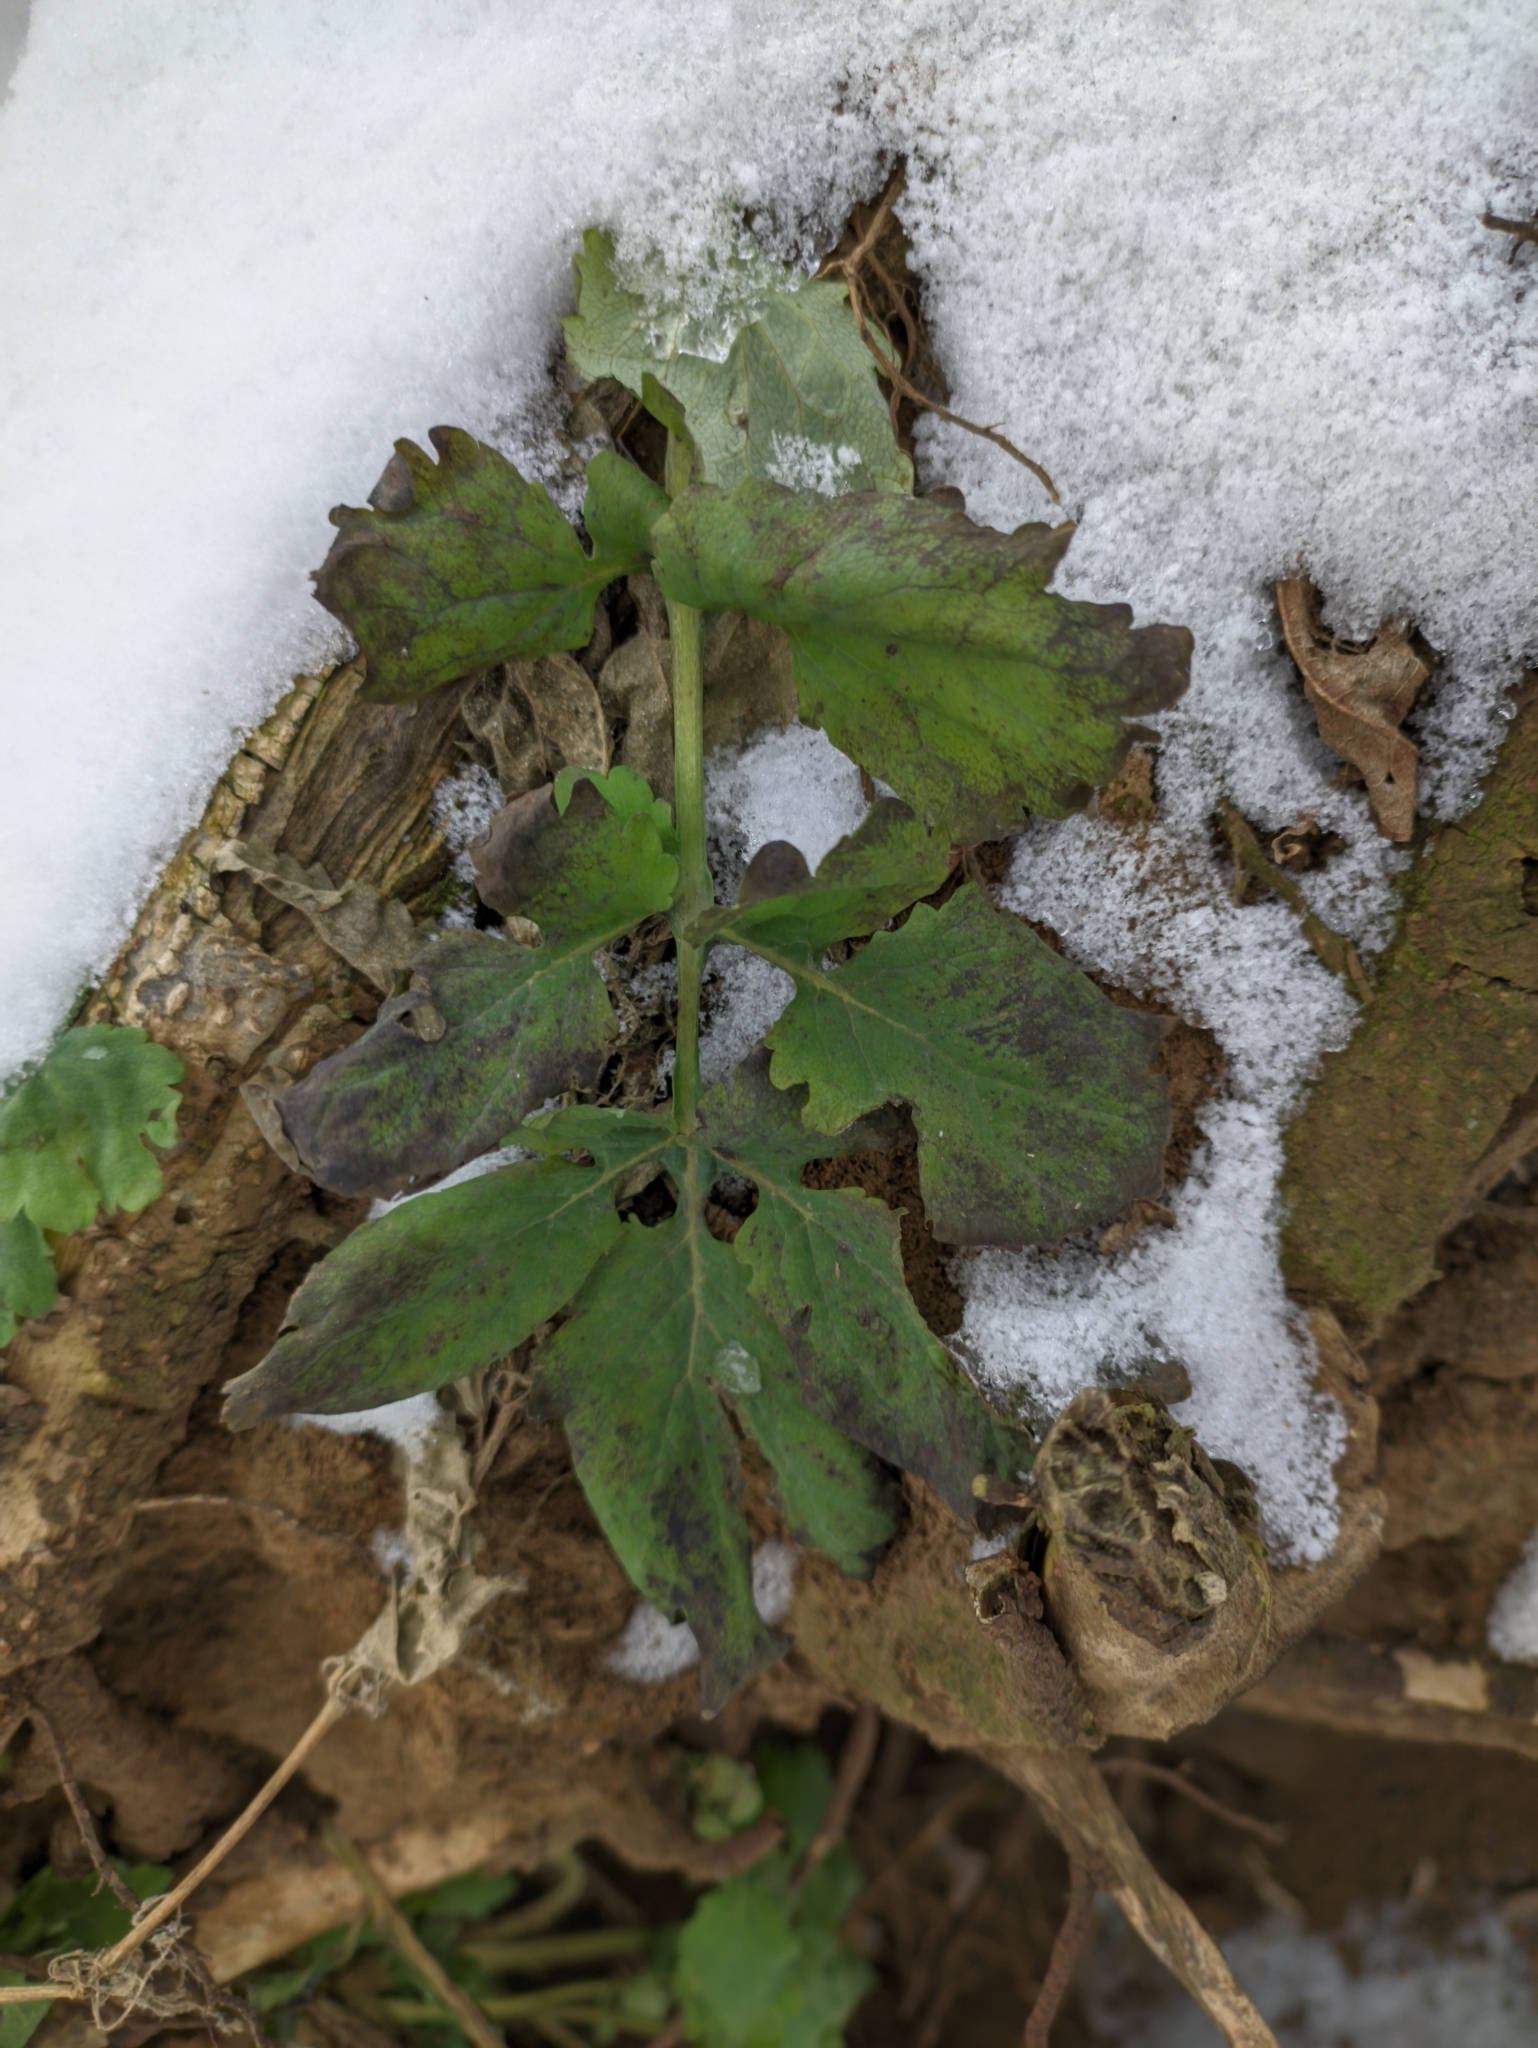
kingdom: Plantae
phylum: Tracheophyta
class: Magnoliopsida
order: Ranunculales
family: Papaveraceae
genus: Chelidonium
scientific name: Chelidonium majus
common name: Greater celandine
